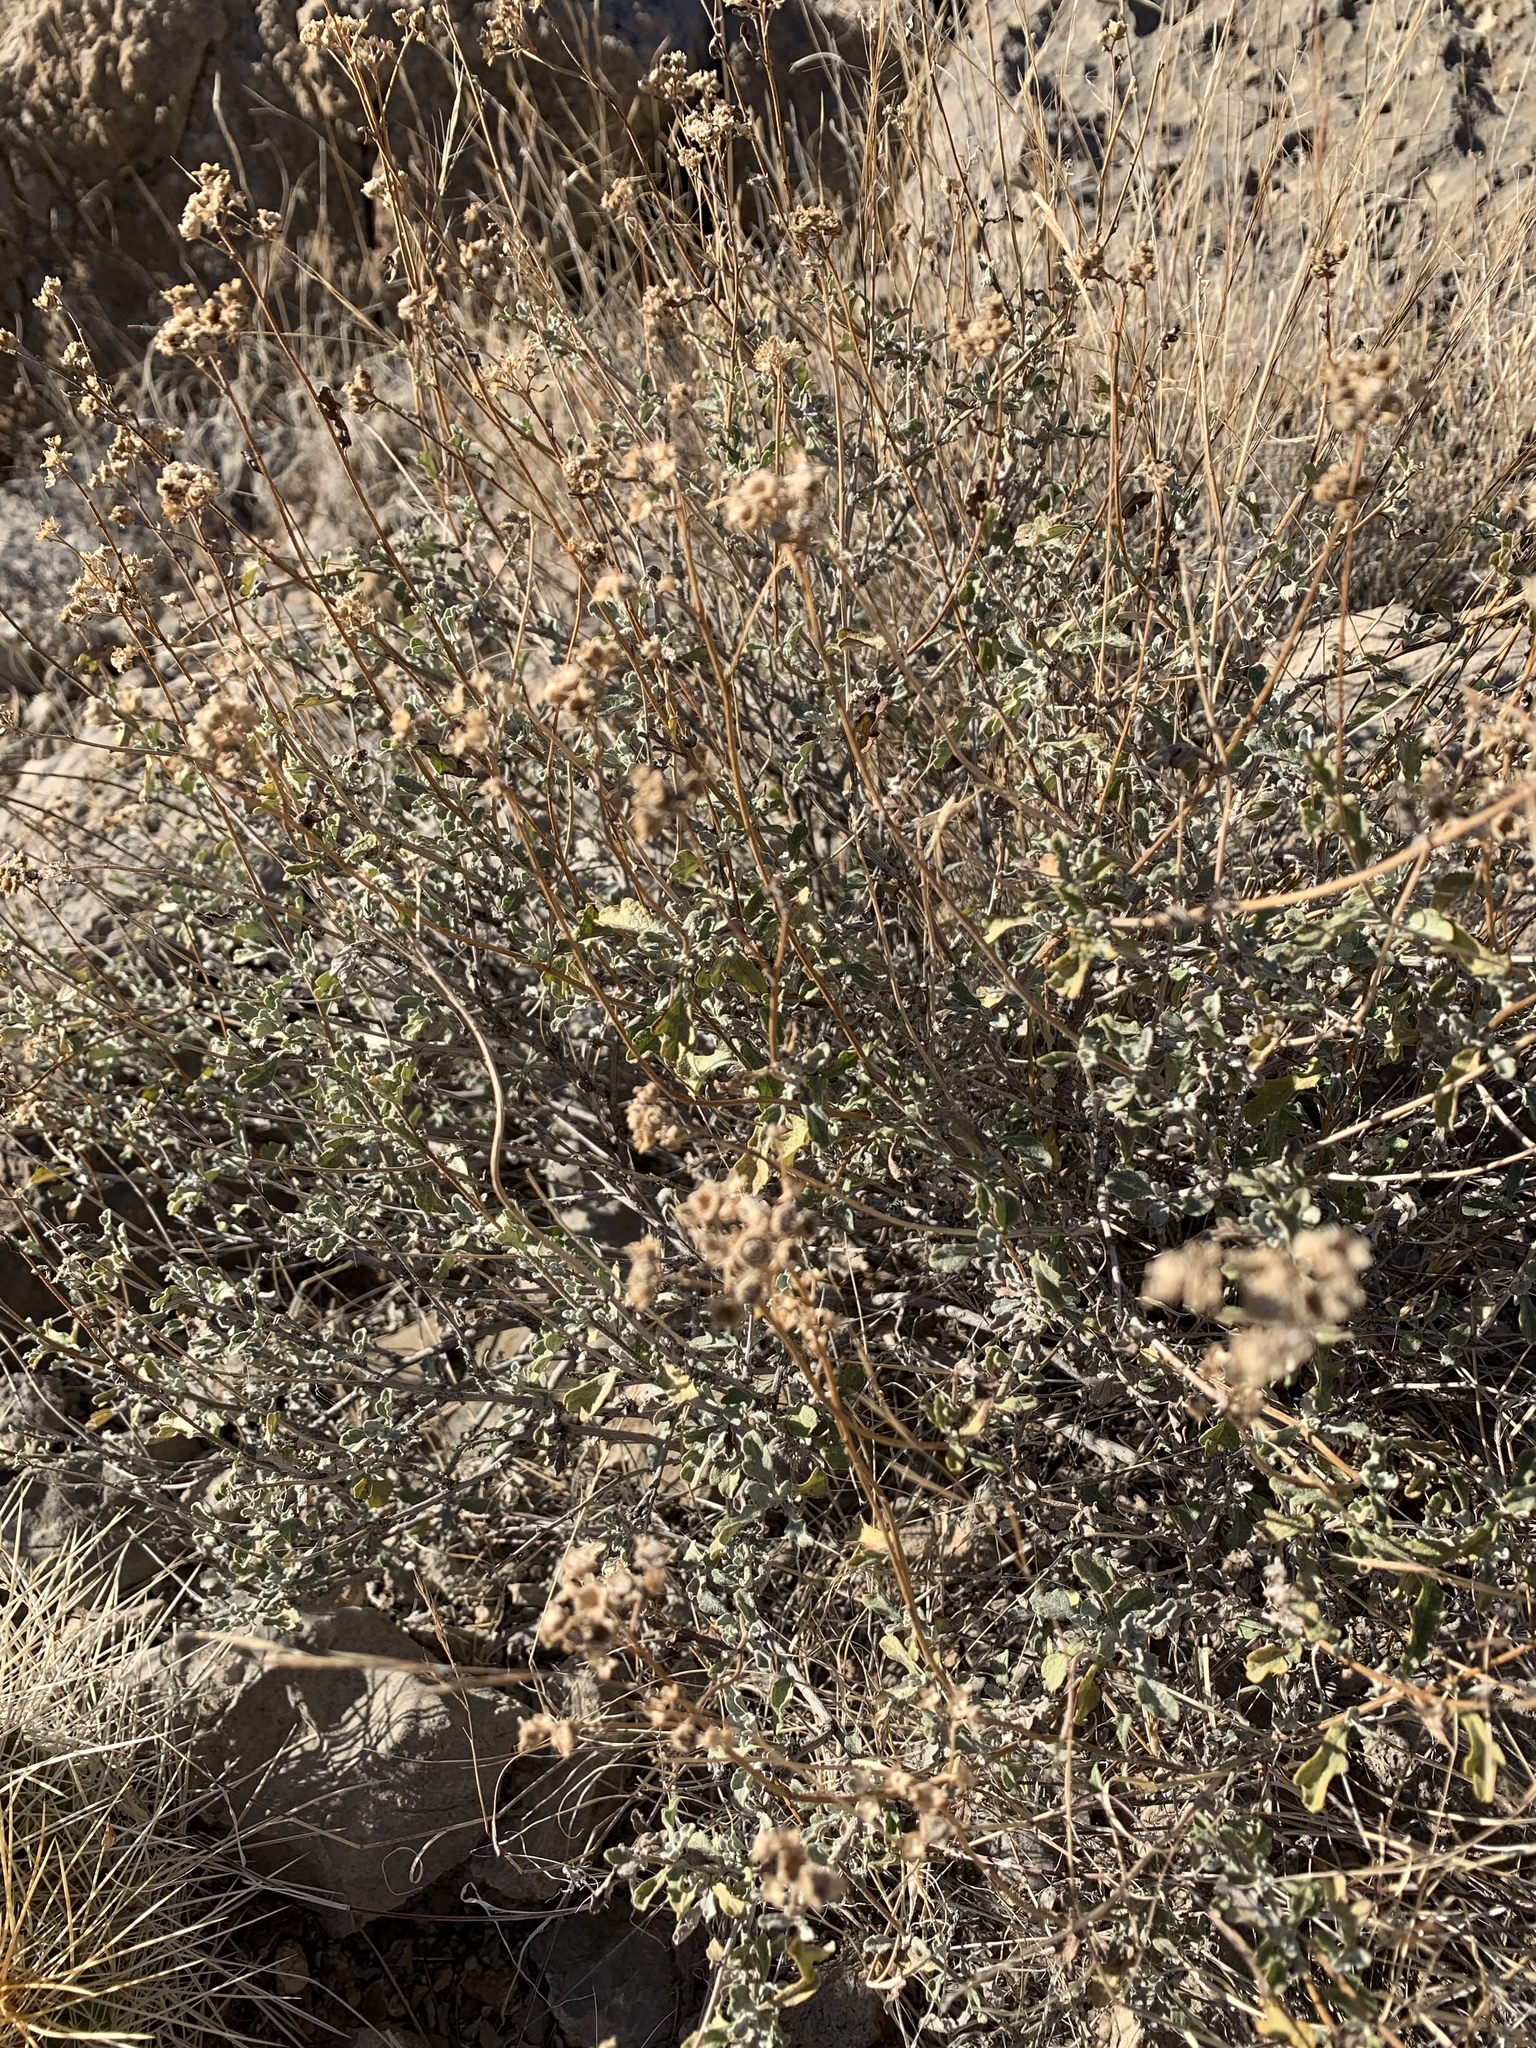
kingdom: Plantae
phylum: Tracheophyta
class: Magnoliopsida
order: Asterales
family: Asteraceae
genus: Parthenium
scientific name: Parthenium incanum
